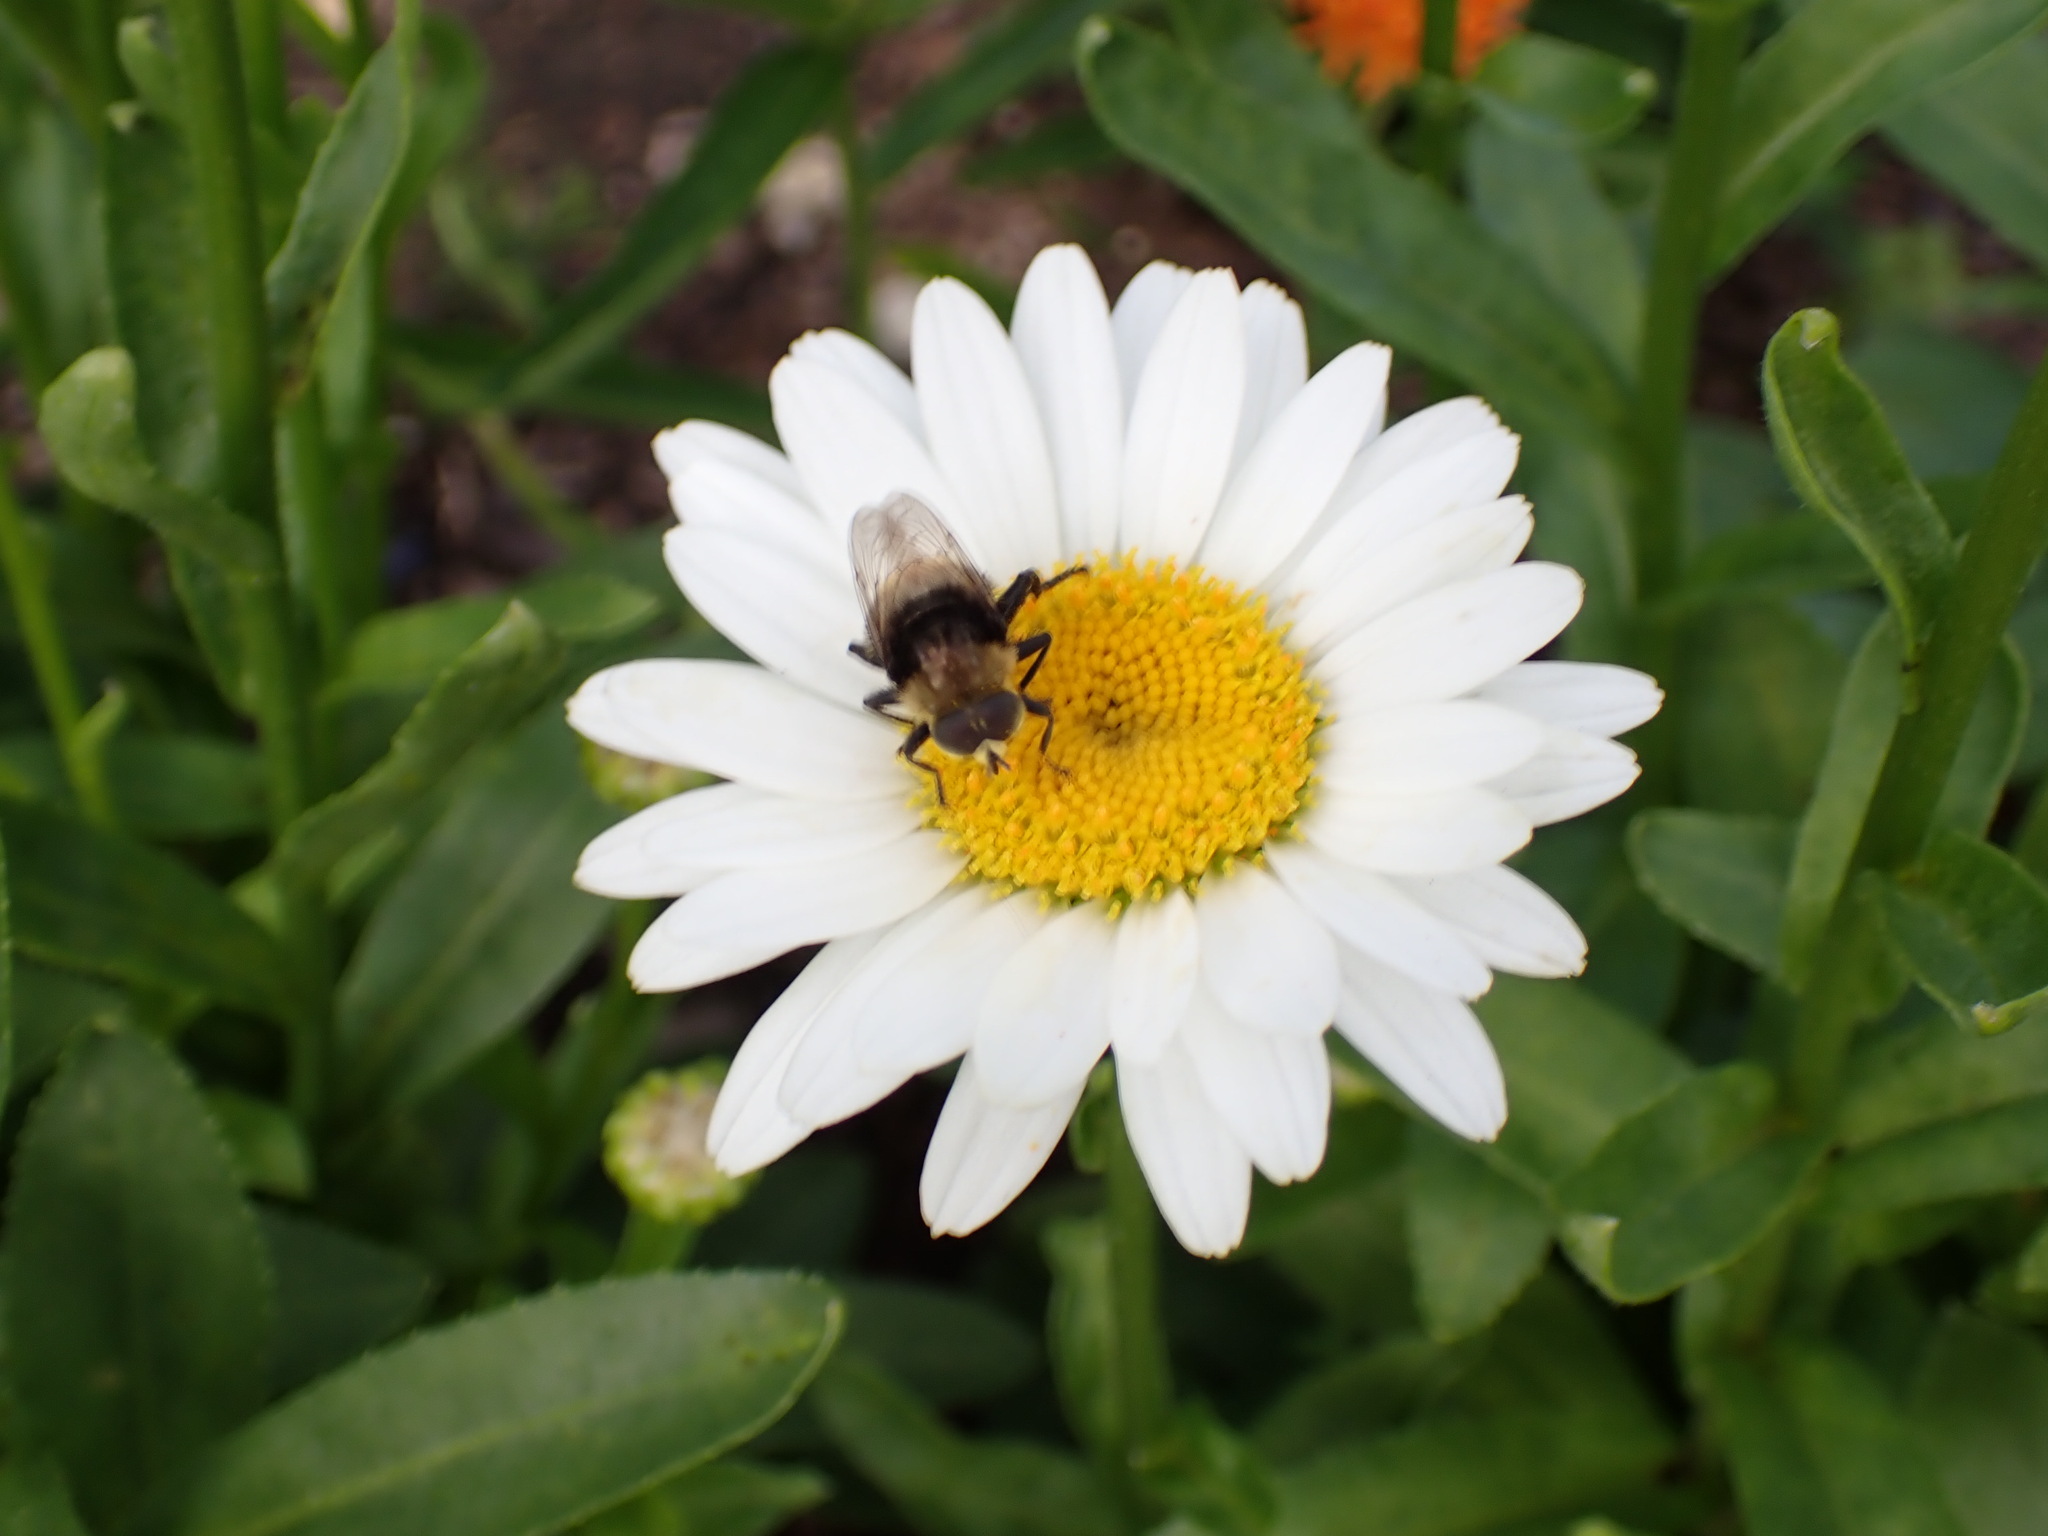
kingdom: Animalia
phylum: Arthropoda
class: Insecta
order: Diptera
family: Syrphidae
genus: Merodon
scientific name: Merodon equestris
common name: Greater bulb-fly
